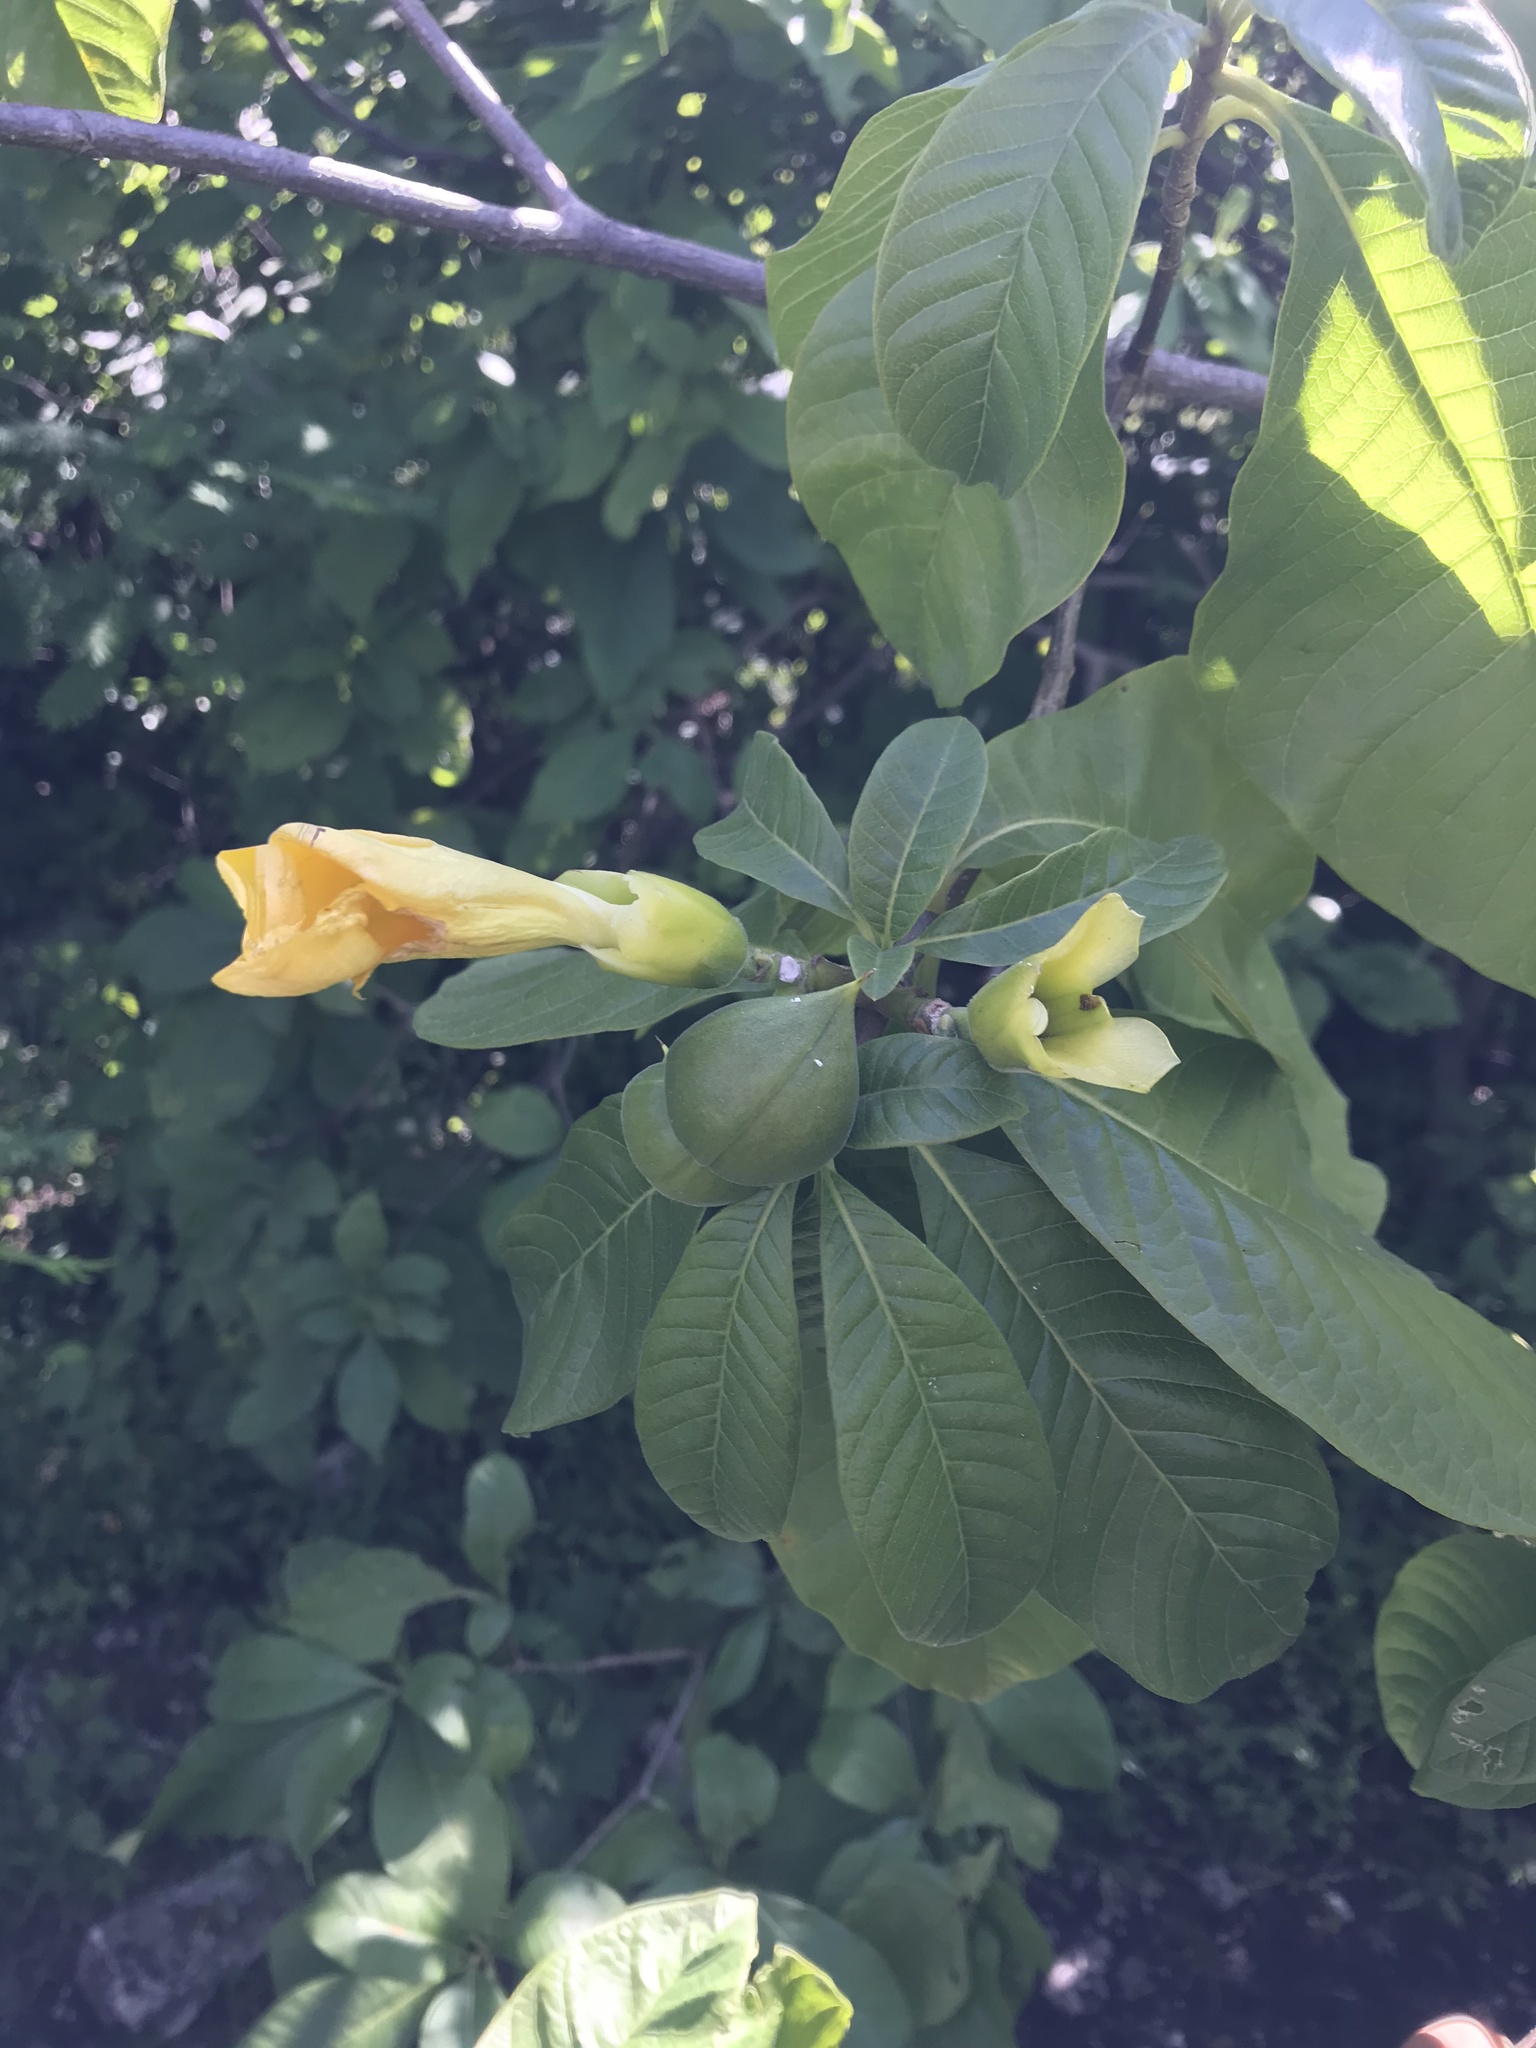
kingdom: Plantae
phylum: Tracheophyta
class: Magnoliopsida
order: Gentianales
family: Apocynaceae
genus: Tabernaemontana
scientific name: Tabernaemontana glabra
